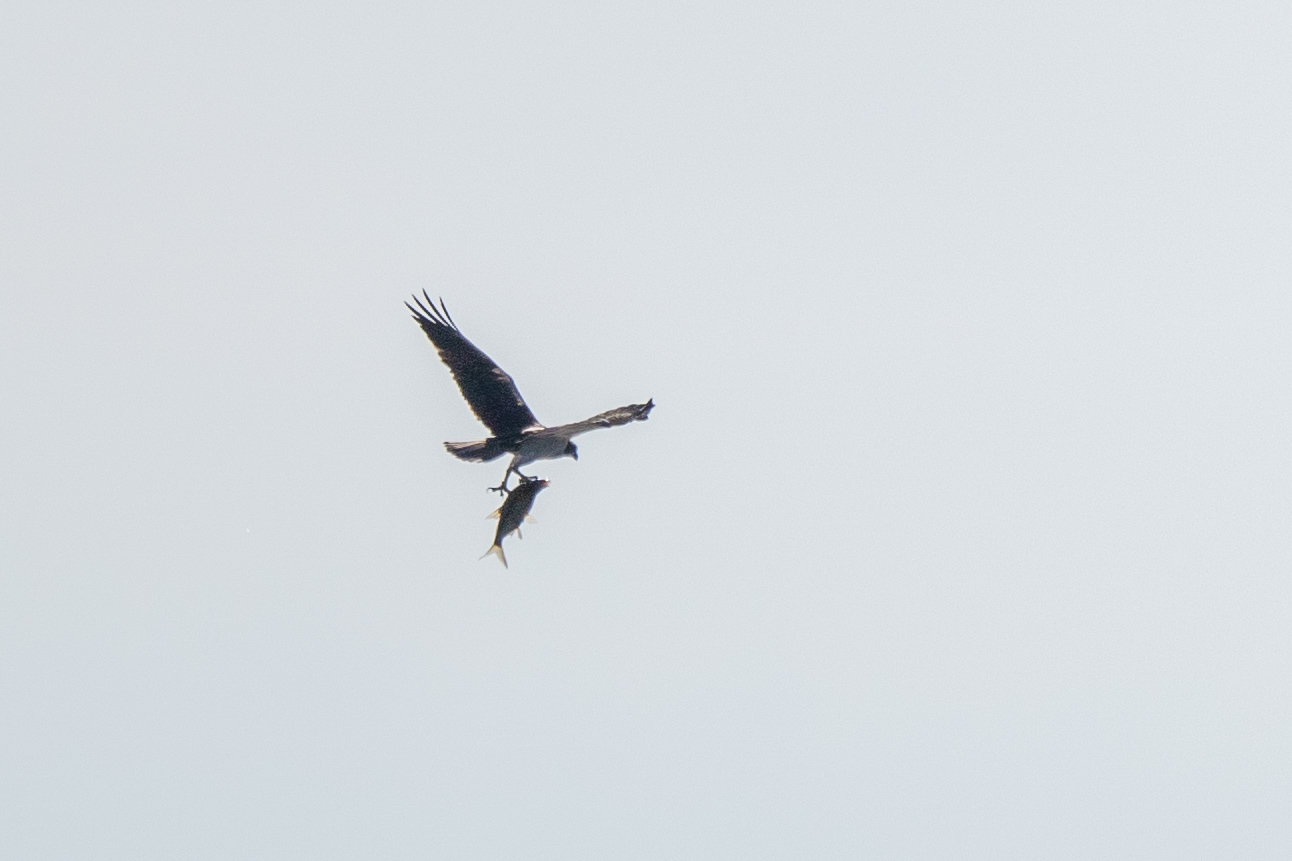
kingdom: Animalia
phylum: Chordata
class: Aves
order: Accipitriformes
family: Pandionidae
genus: Pandion
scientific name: Pandion haliaetus
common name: Osprey
